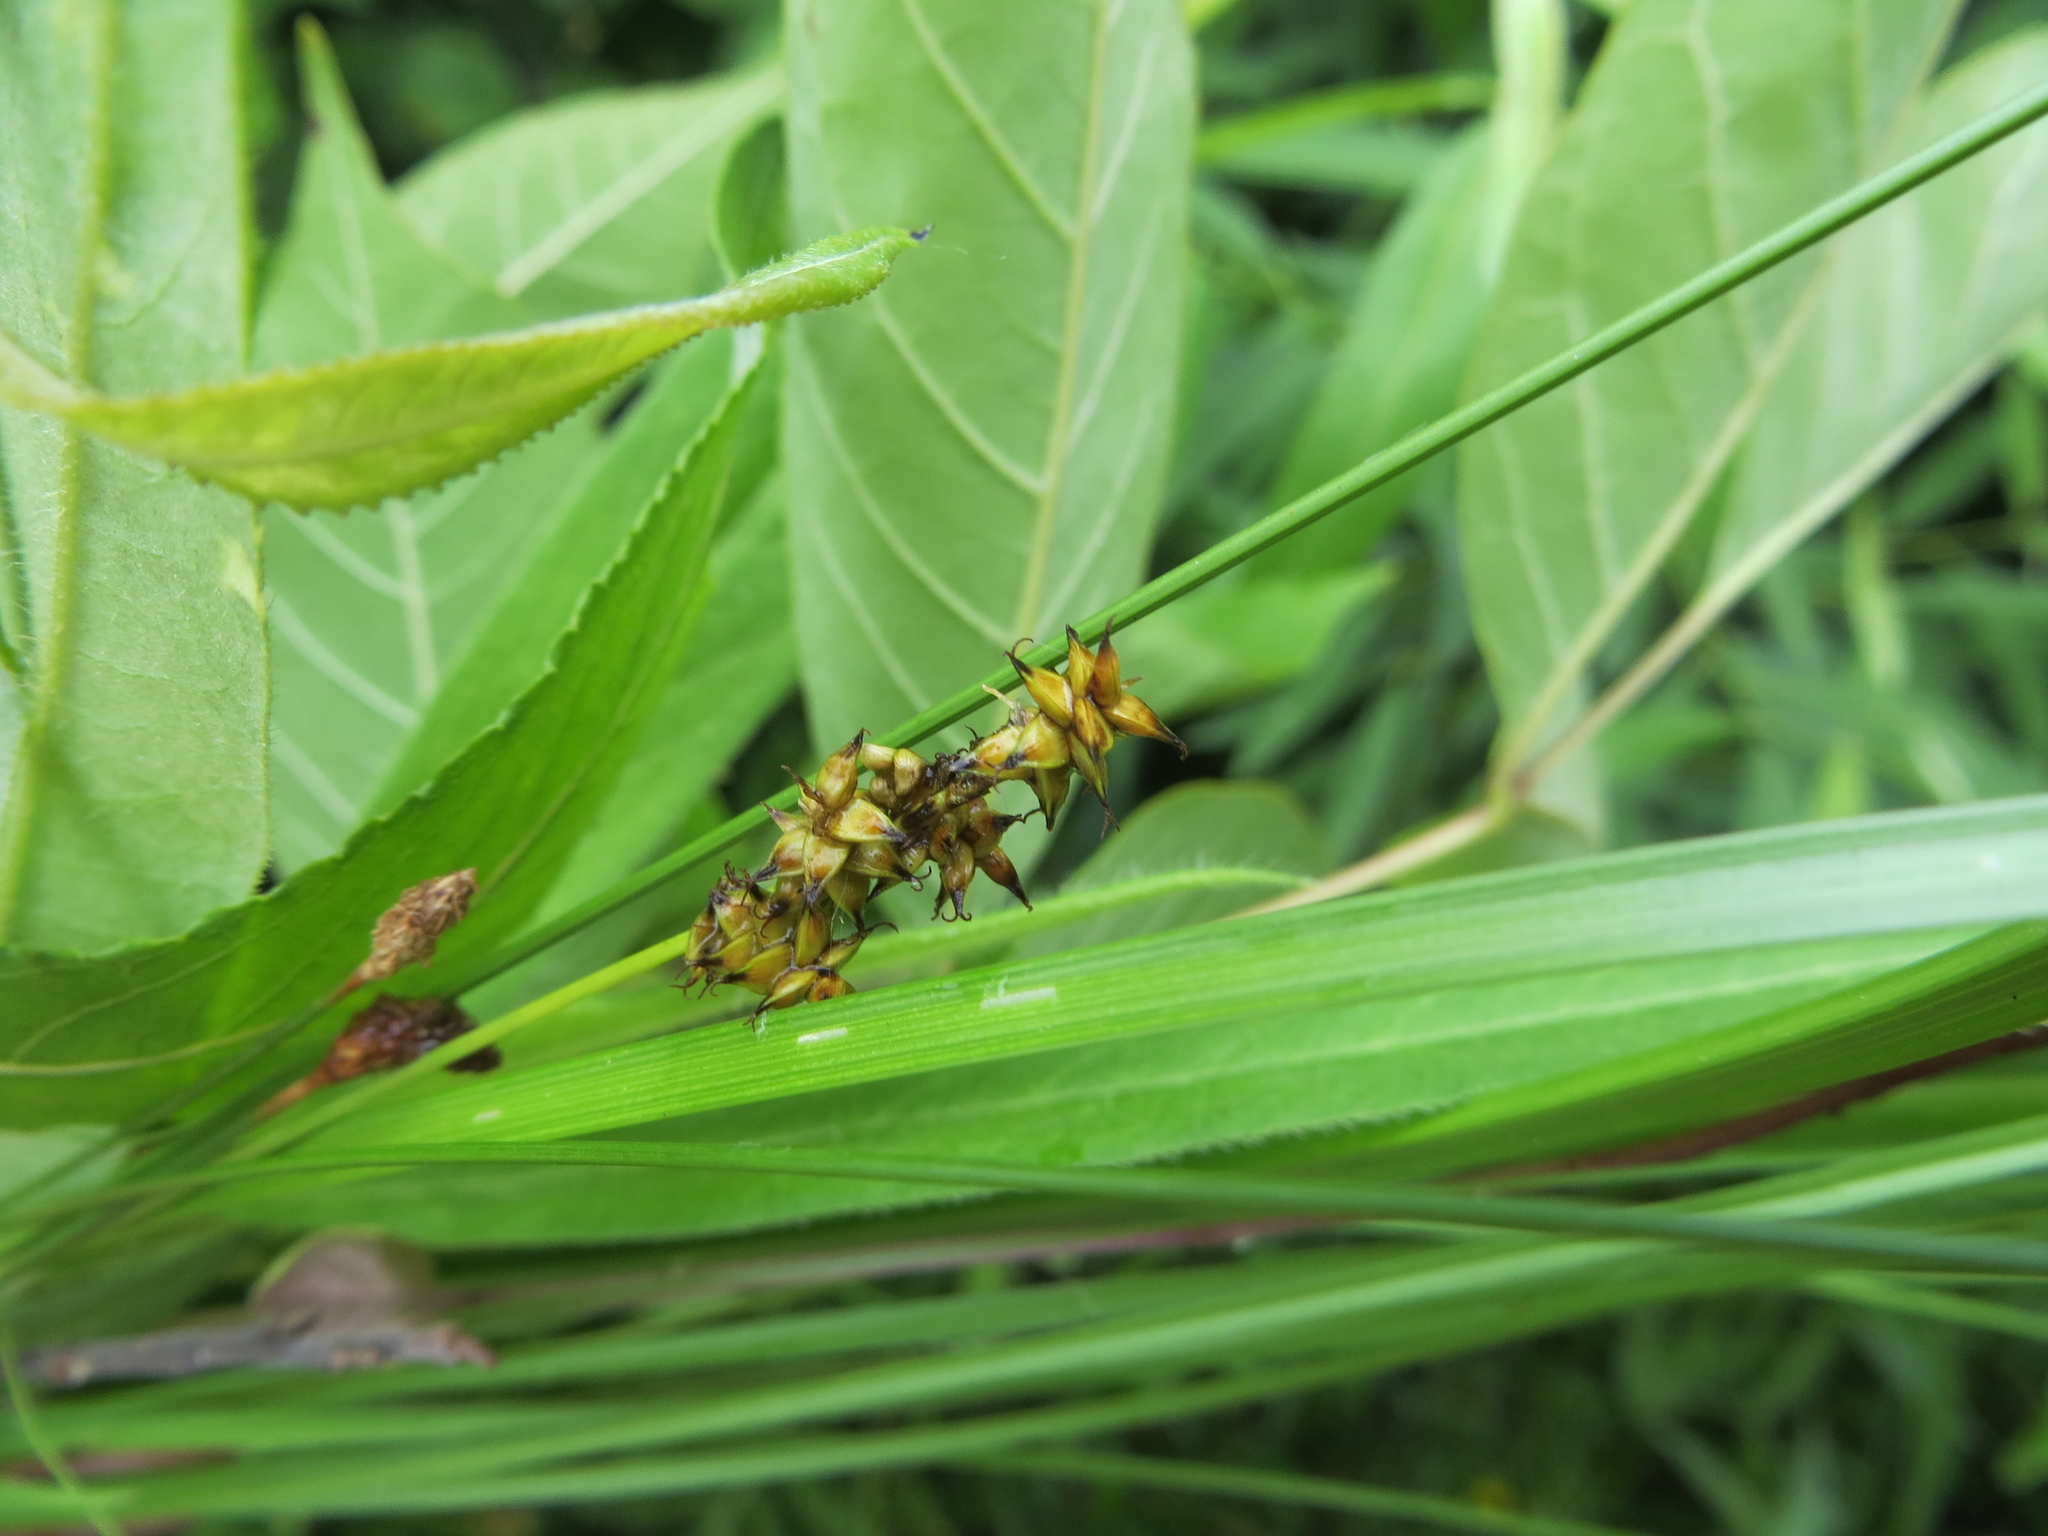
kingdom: Plantae
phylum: Tracheophyta
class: Liliopsida
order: Poales
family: Cyperaceae
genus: Carex
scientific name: Carex retroflexa
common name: Reflexed sedge
